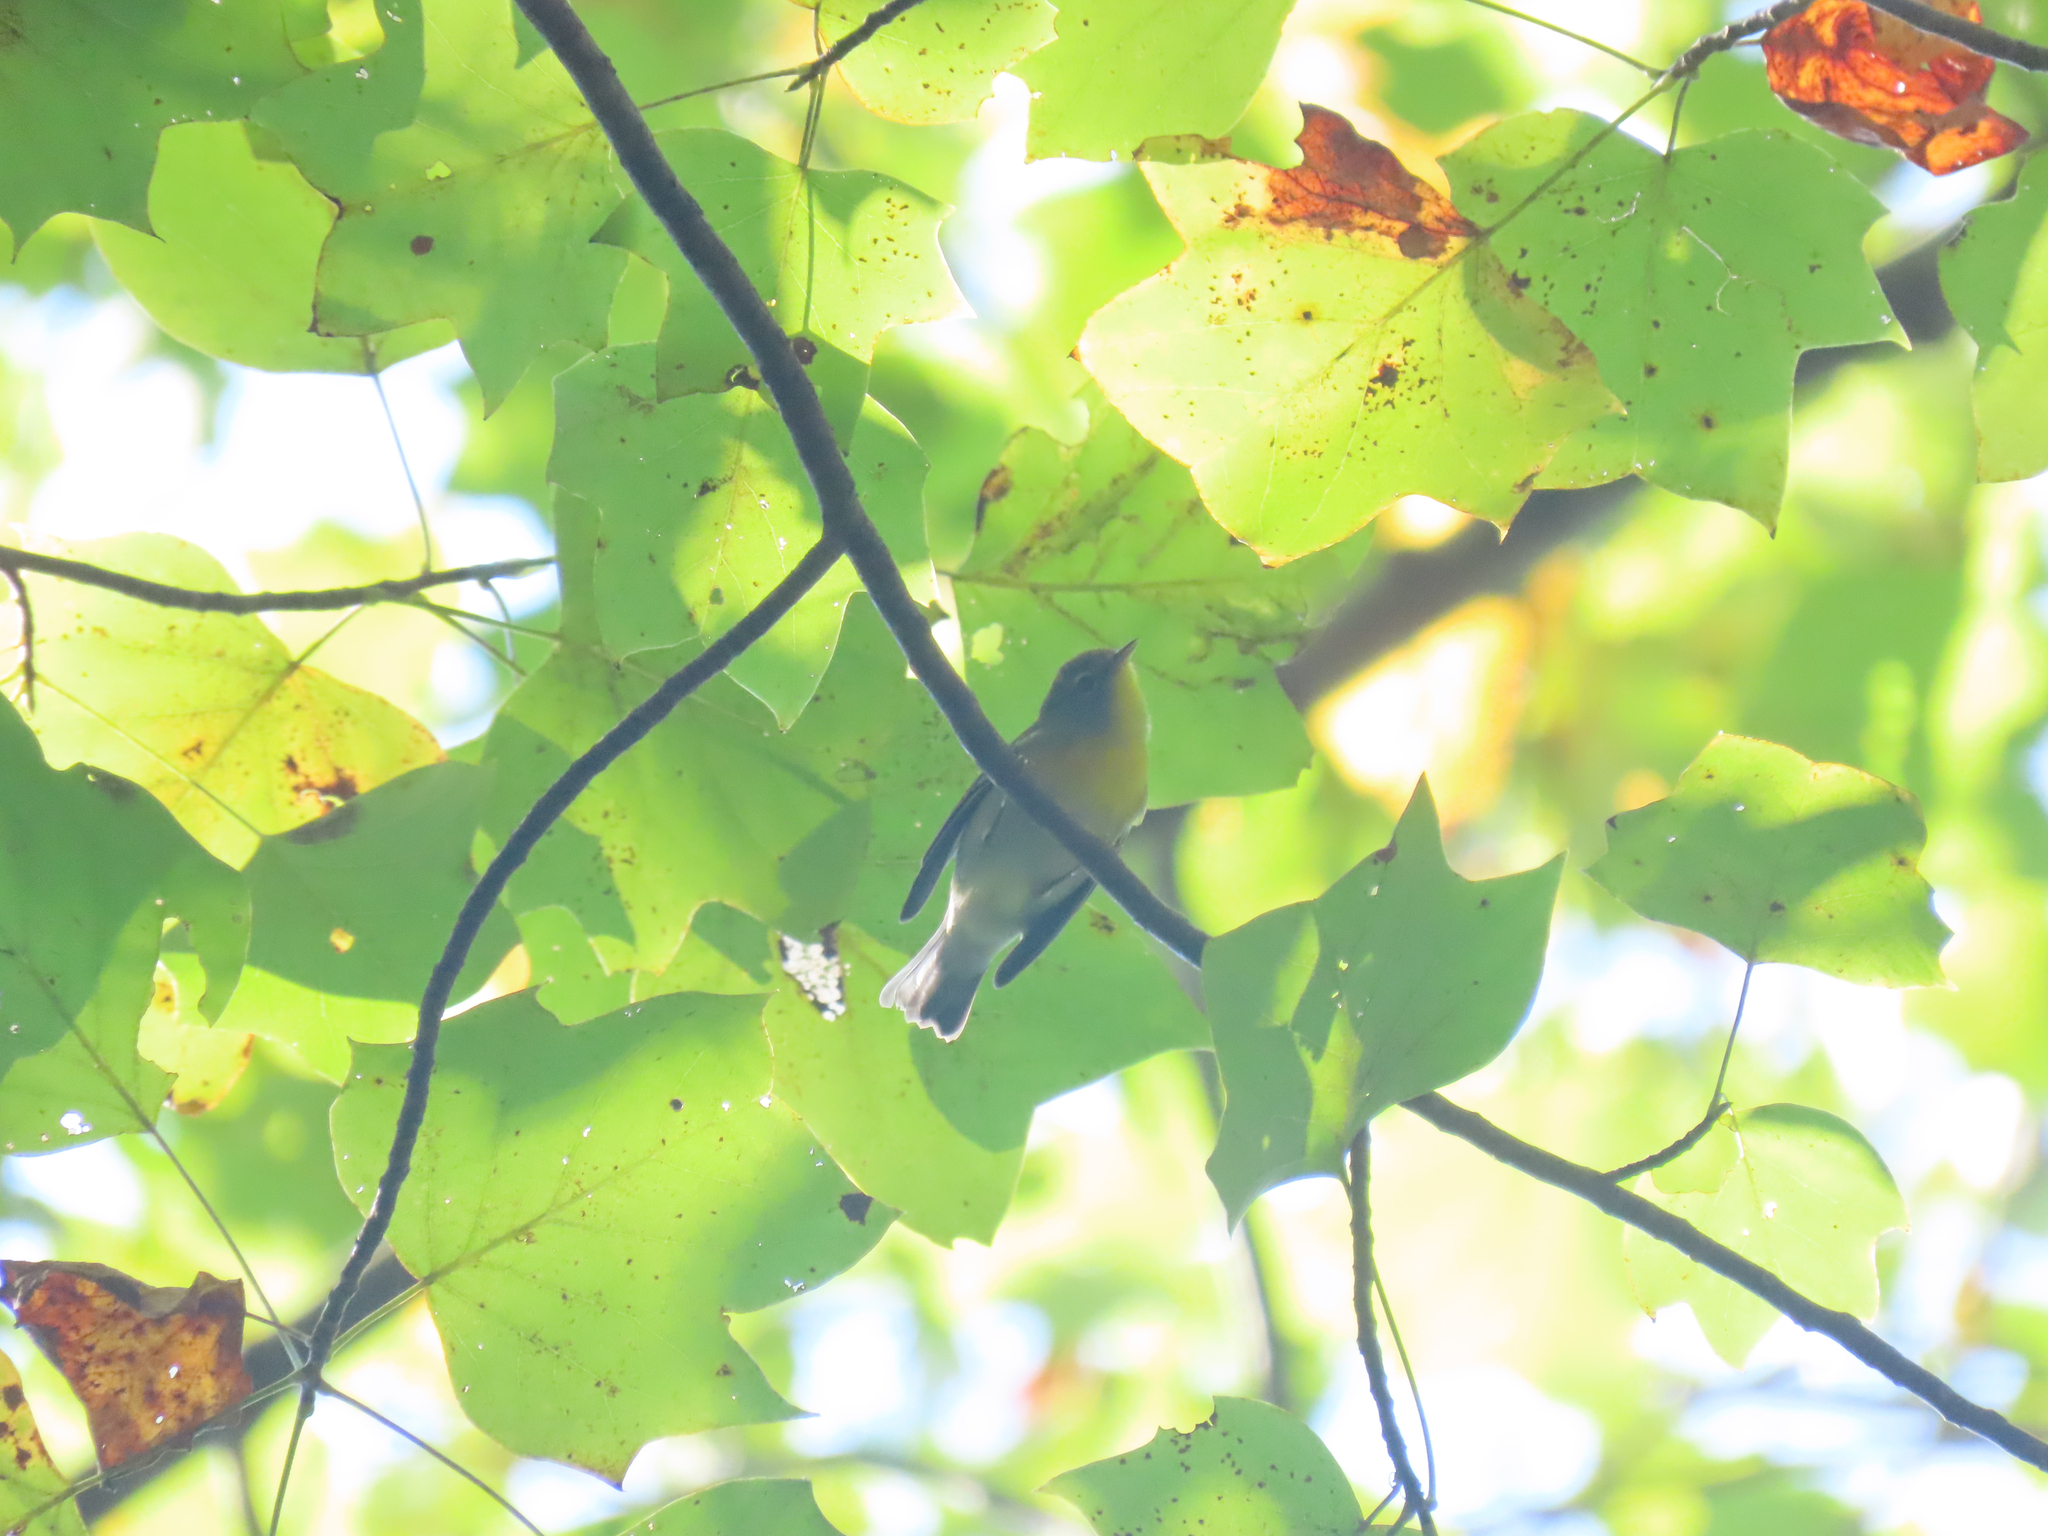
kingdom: Animalia
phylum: Chordata
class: Aves
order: Passeriformes
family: Parulidae
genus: Setophaga
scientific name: Setophaga americana
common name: Northern parula
